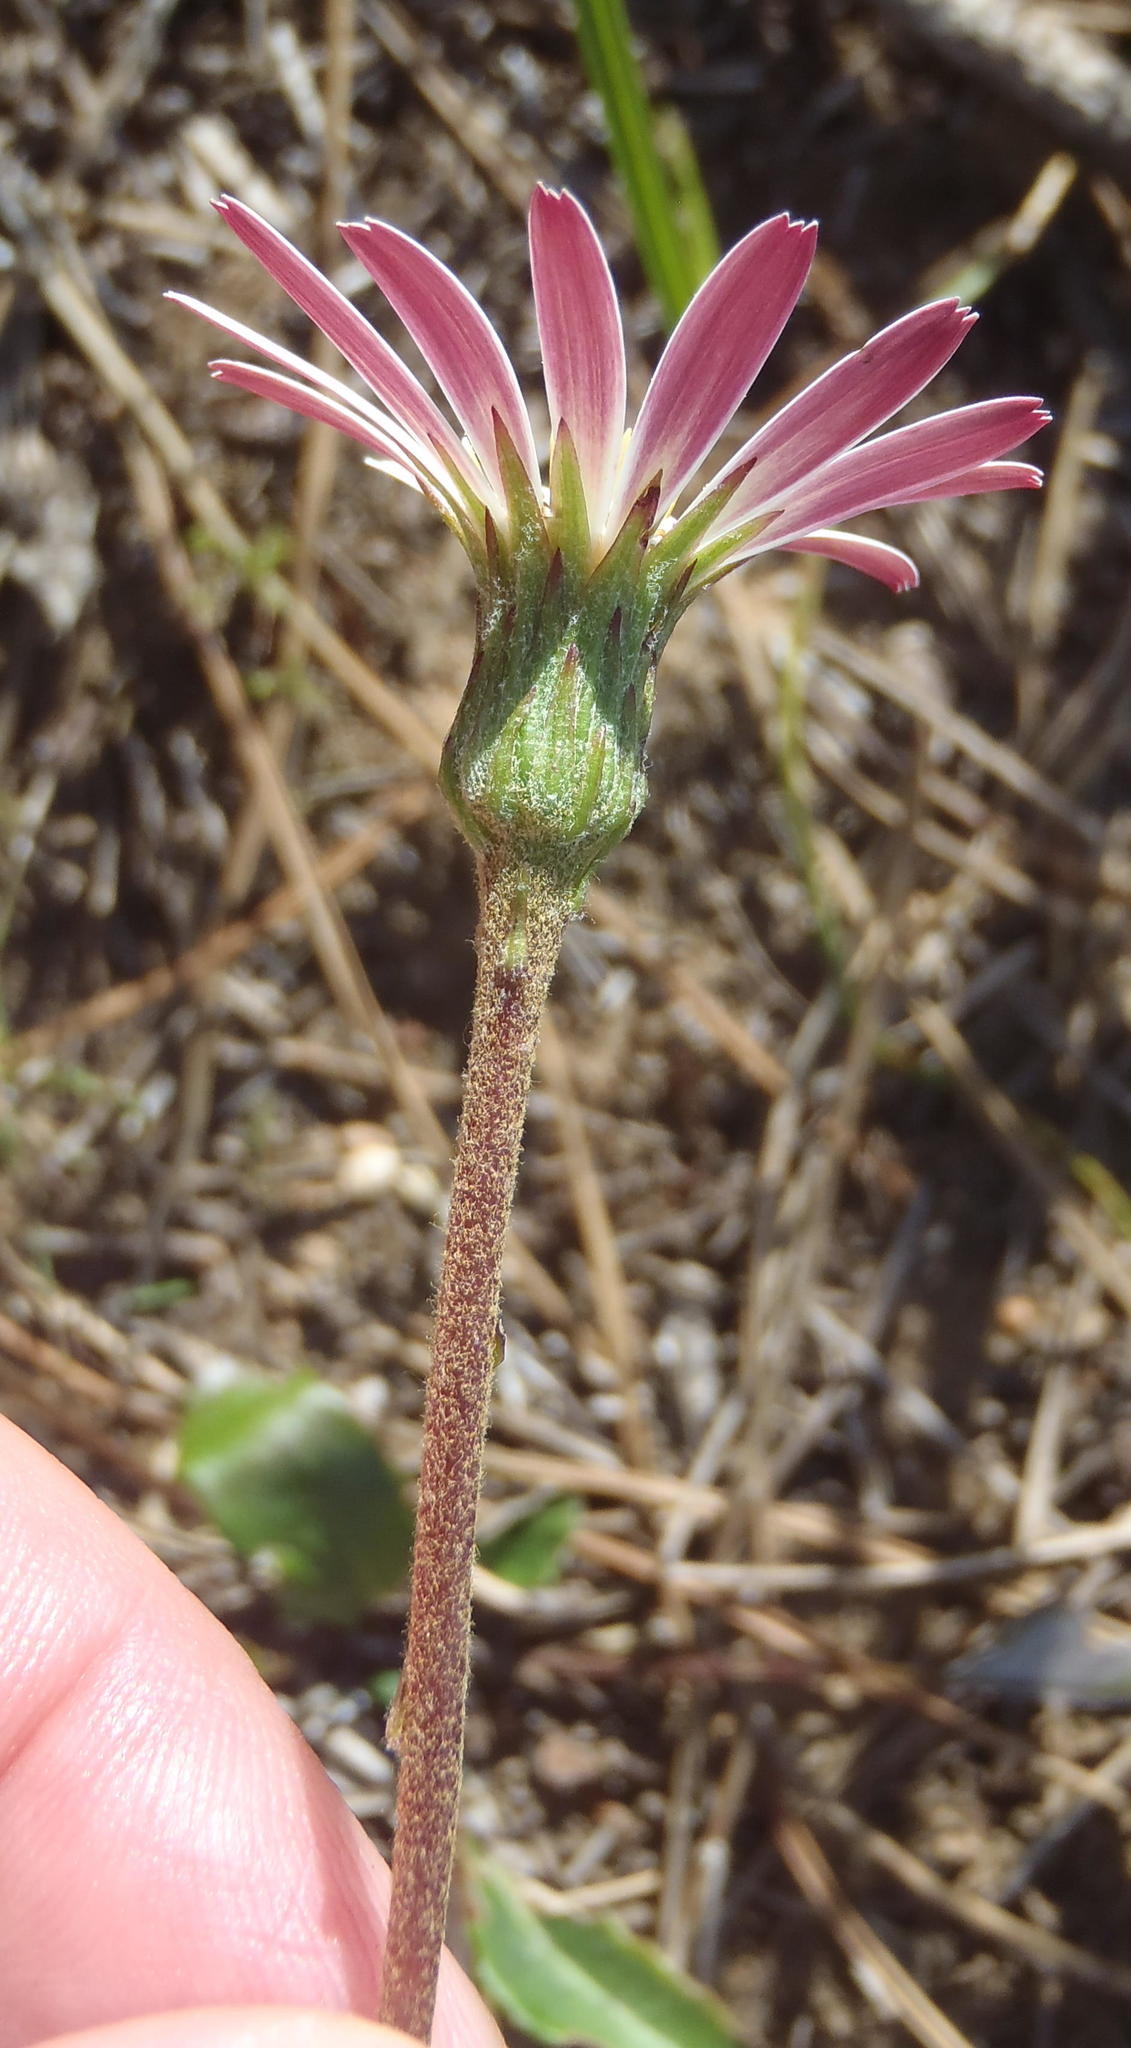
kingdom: Plantae
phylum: Tracheophyta
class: Magnoliopsida
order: Asterales
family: Asteraceae
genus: Gerbera
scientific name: Gerbera serrata
